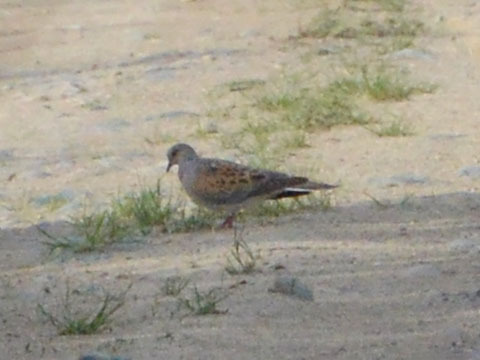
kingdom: Animalia
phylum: Chordata
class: Aves
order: Columbiformes
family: Columbidae
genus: Streptopelia
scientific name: Streptopelia turtur
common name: European turtle dove
